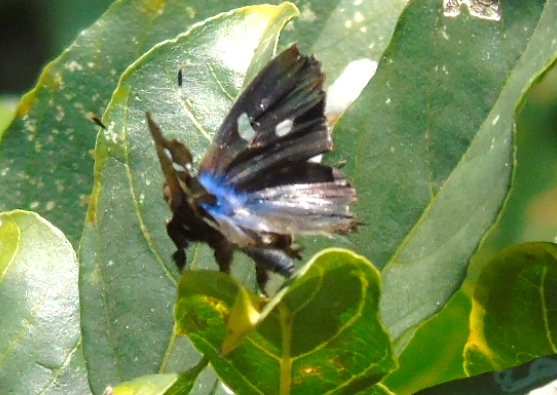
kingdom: Animalia
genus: Anteros
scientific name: Anteros carausius
